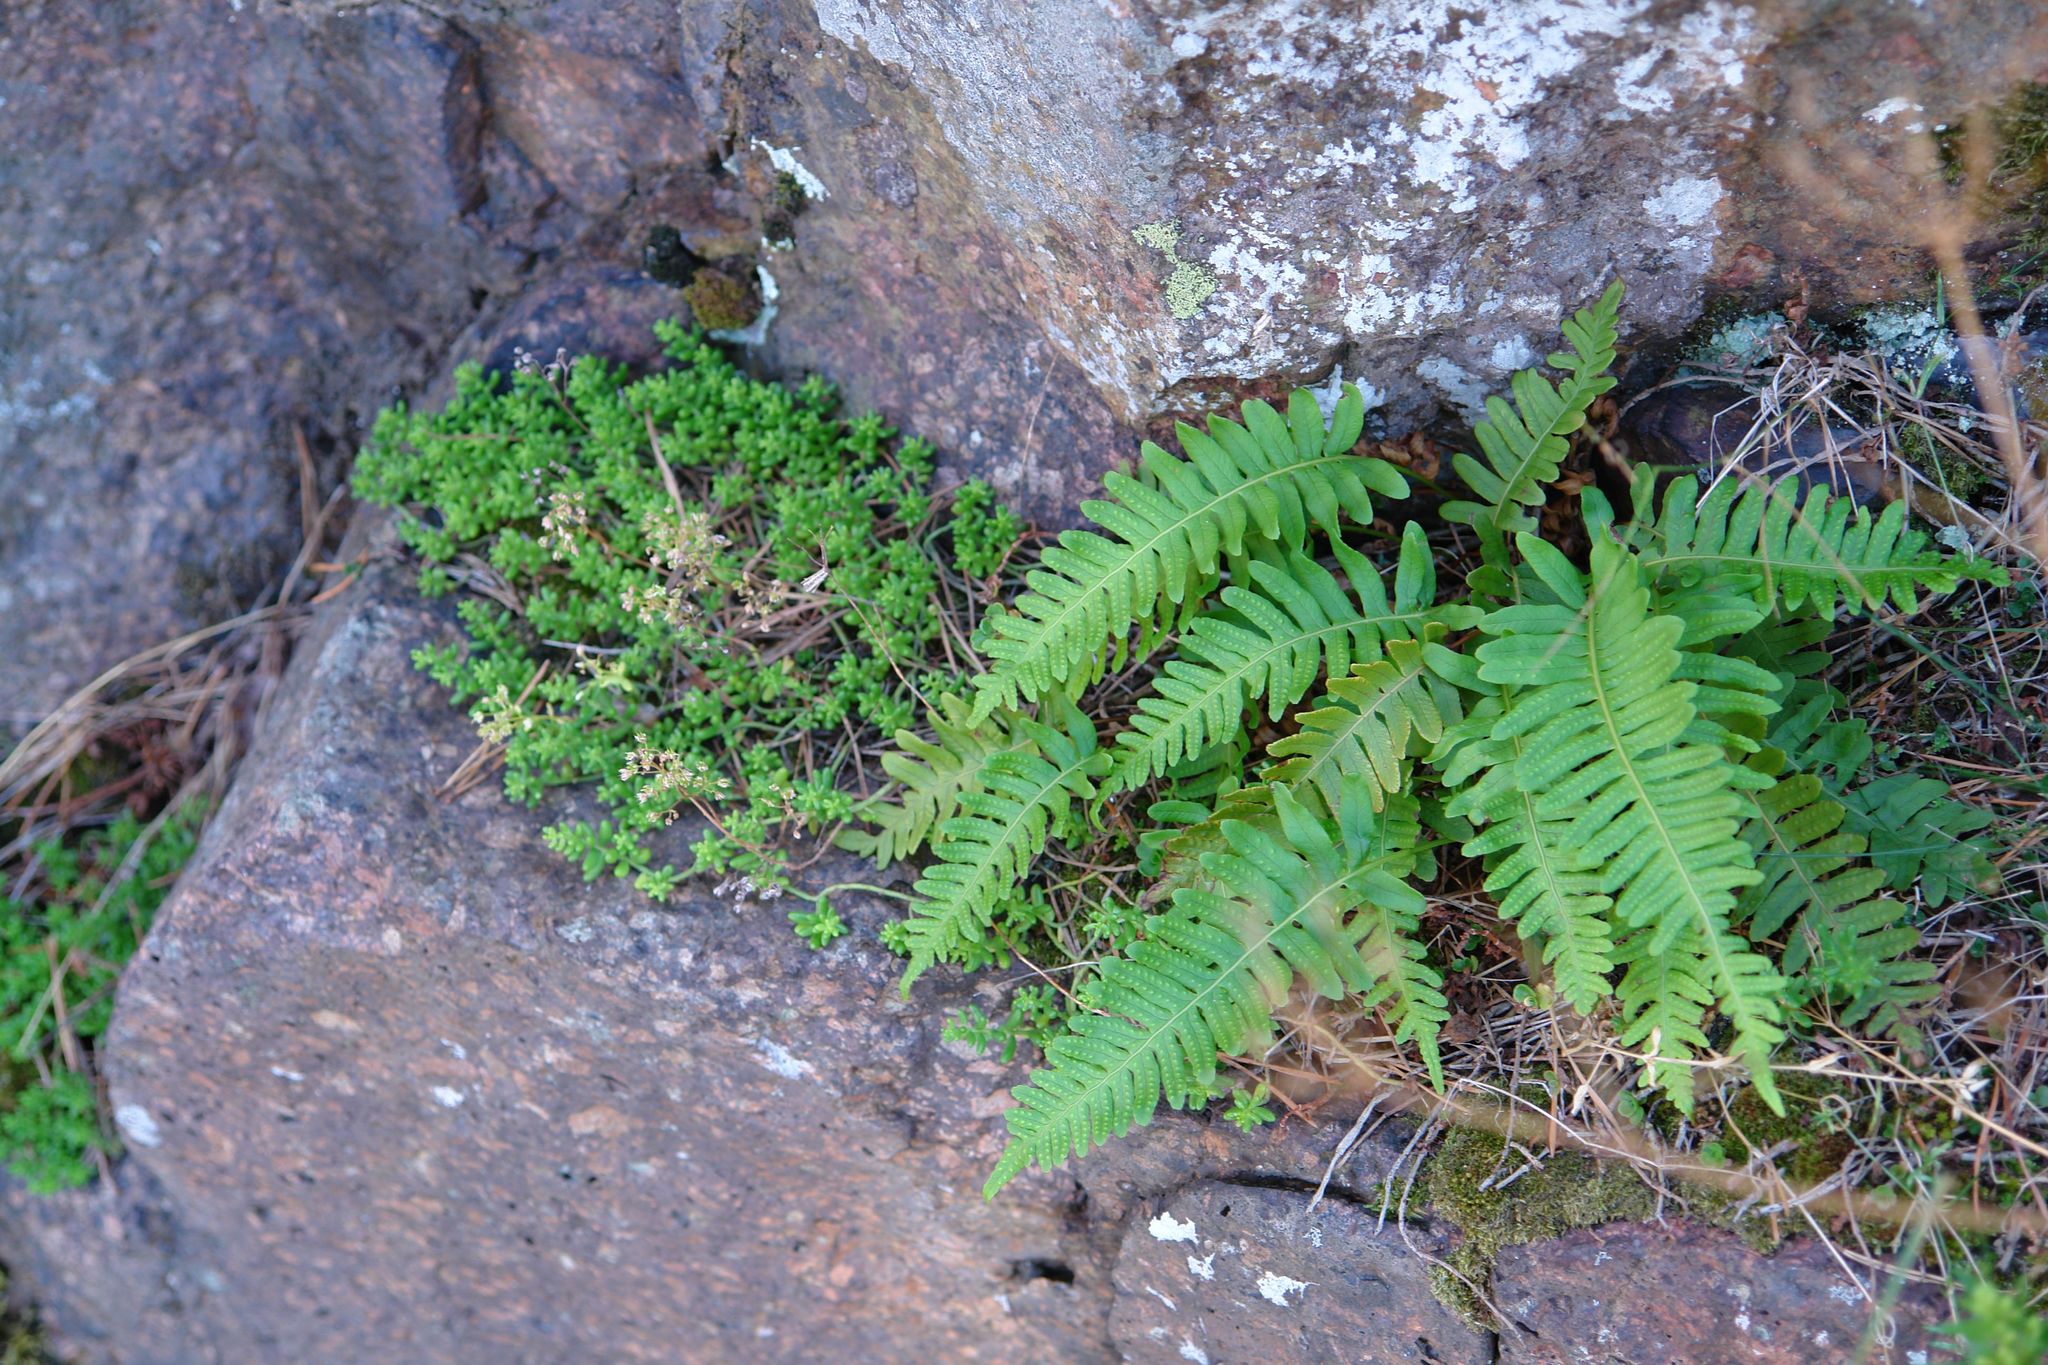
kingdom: Plantae
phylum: Tracheophyta
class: Polypodiopsida
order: Polypodiales
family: Polypodiaceae
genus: Polypodium
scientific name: Polypodium vulgare
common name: Common polypody
